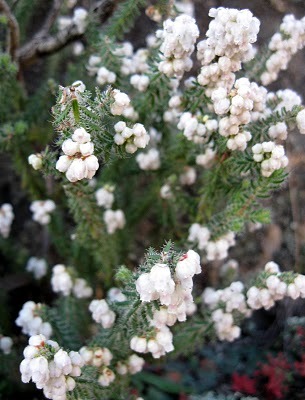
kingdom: Plantae
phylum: Tracheophyta
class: Magnoliopsida
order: Ericales
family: Ericaceae
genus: Erica
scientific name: Erica totta
